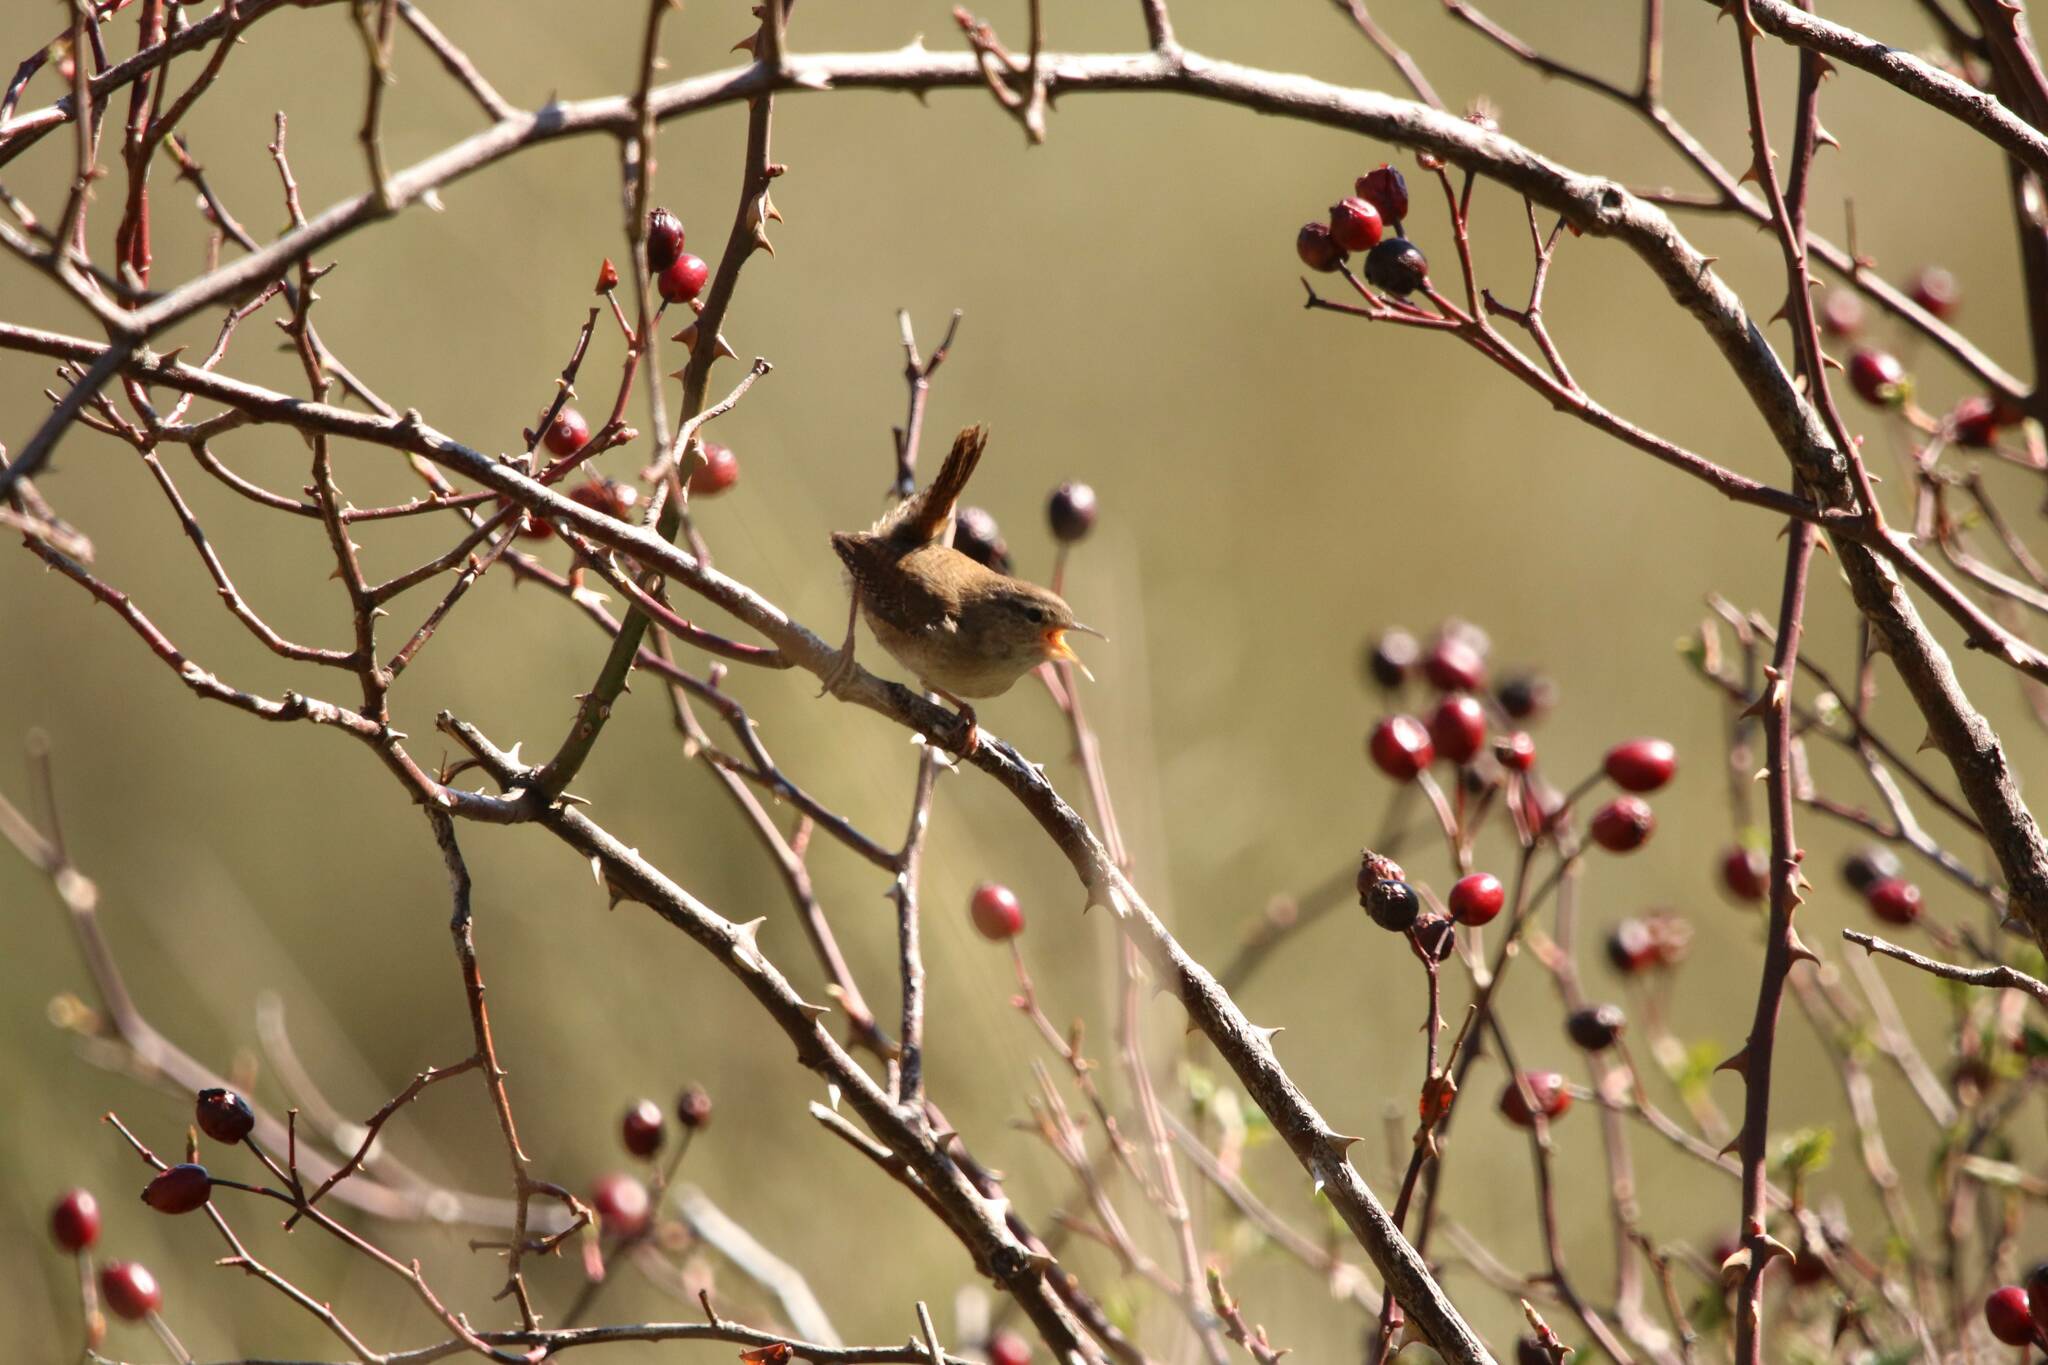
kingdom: Animalia
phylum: Chordata
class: Aves
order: Passeriformes
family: Troglodytidae
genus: Troglodytes
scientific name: Troglodytes troglodytes
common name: Eurasian wren
